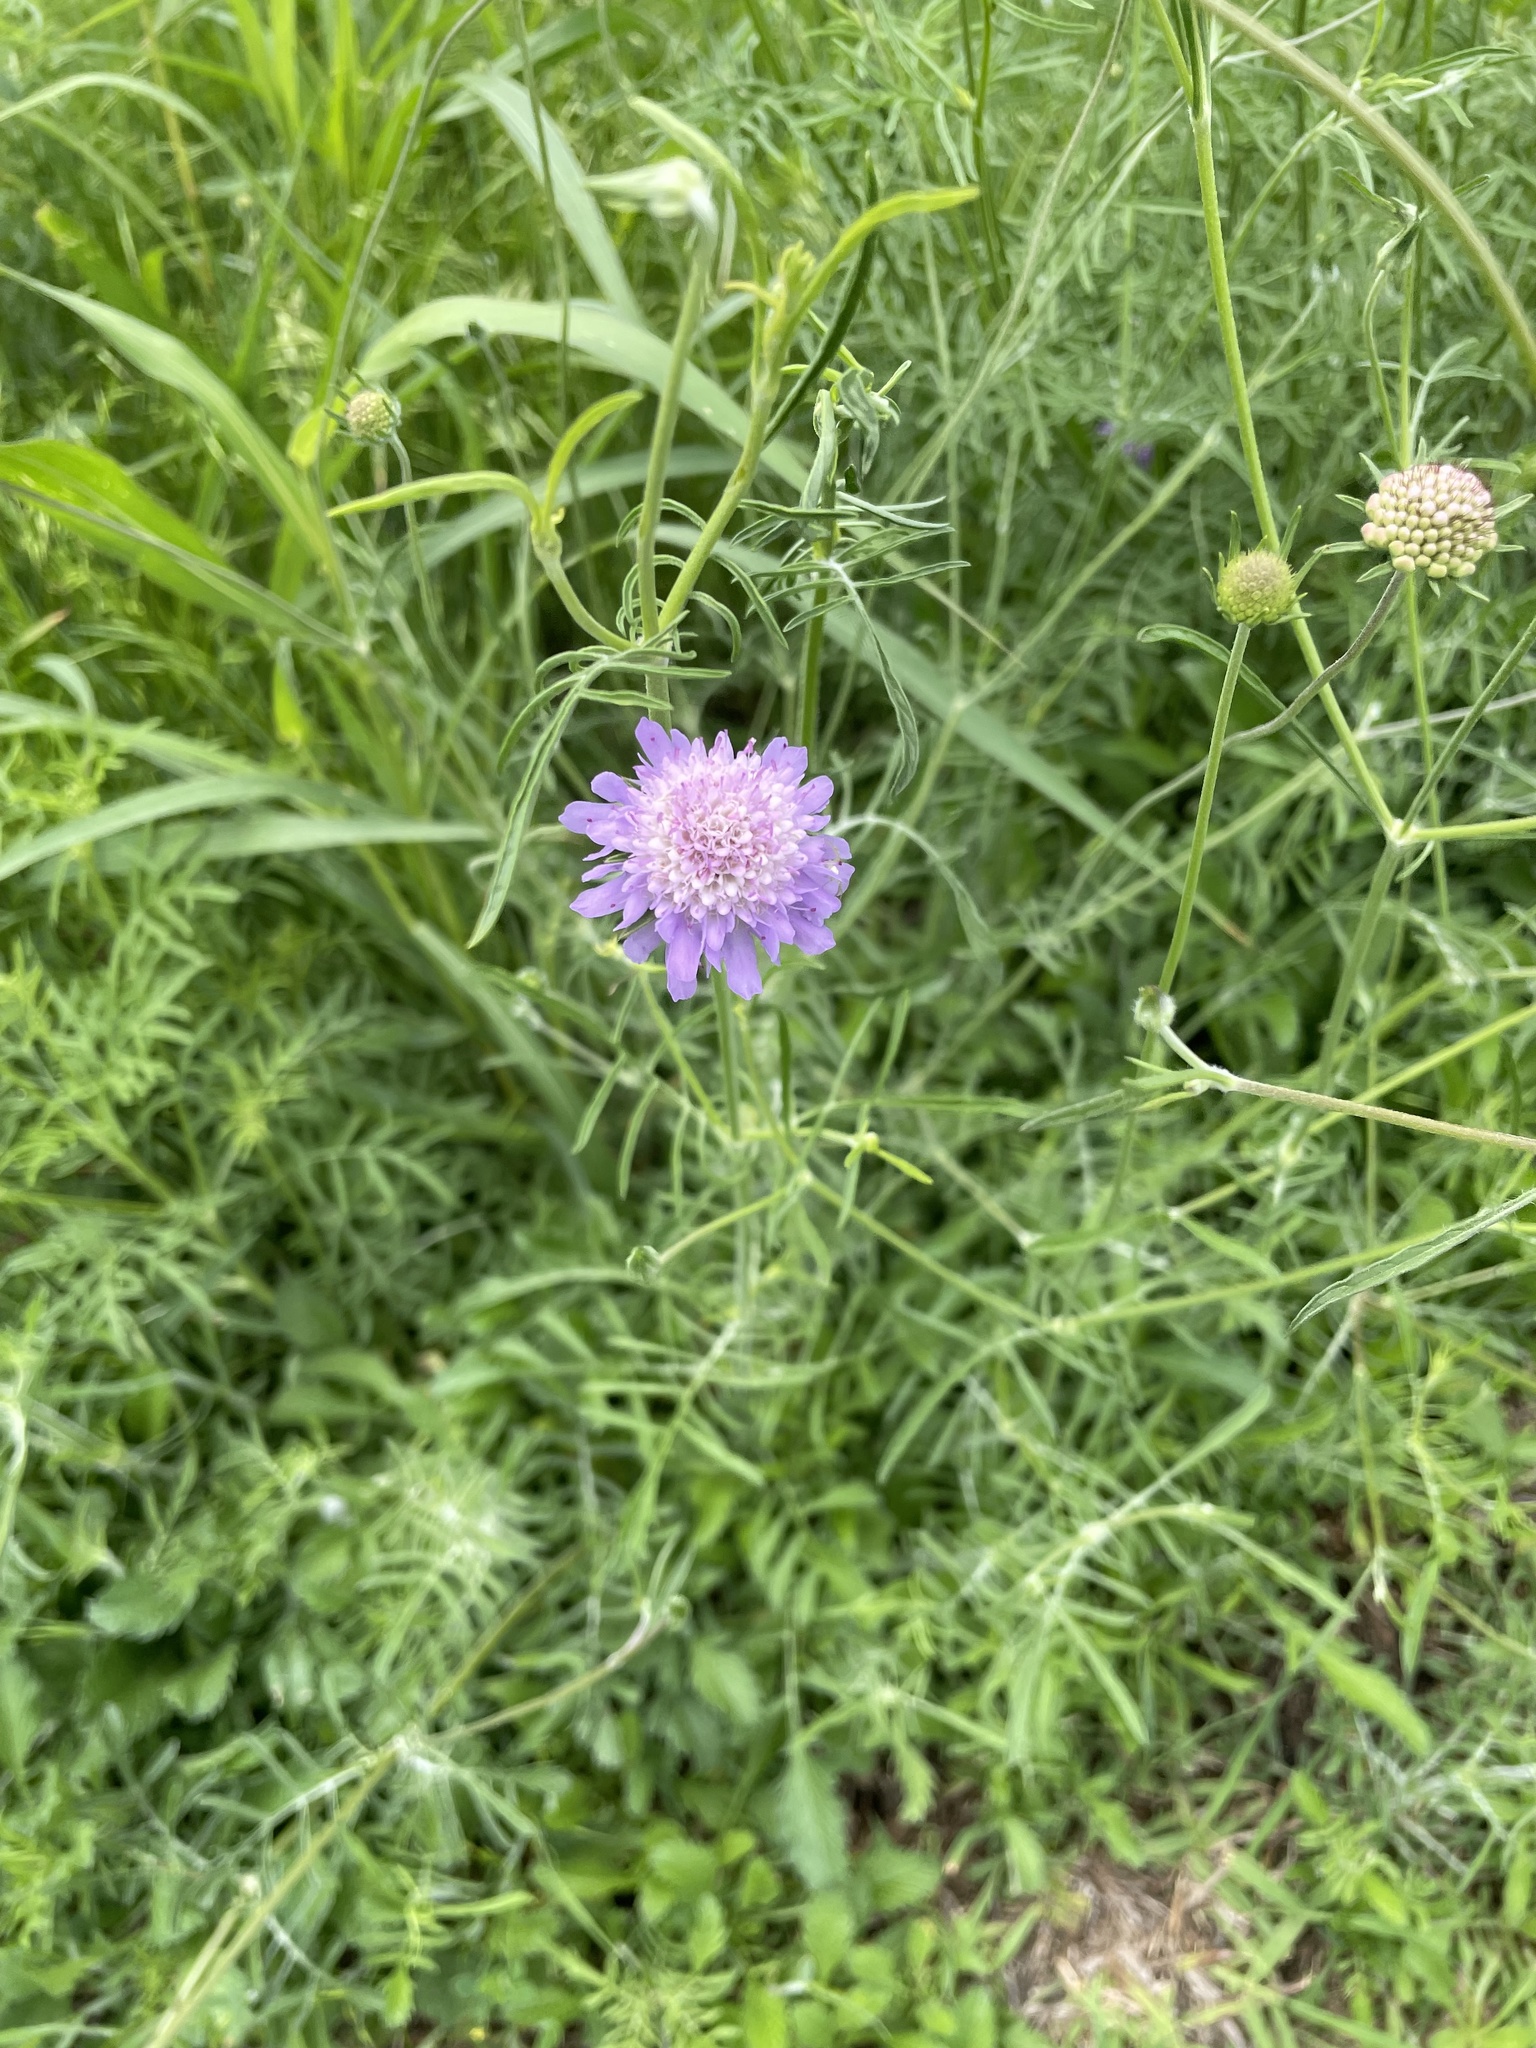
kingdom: Plantae
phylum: Tracheophyta
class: Magnoliopsida
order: Dipsacales
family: Caprifoliaceae
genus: Sixalix
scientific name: Sixalix atropurpurea
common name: Sweet scabious
